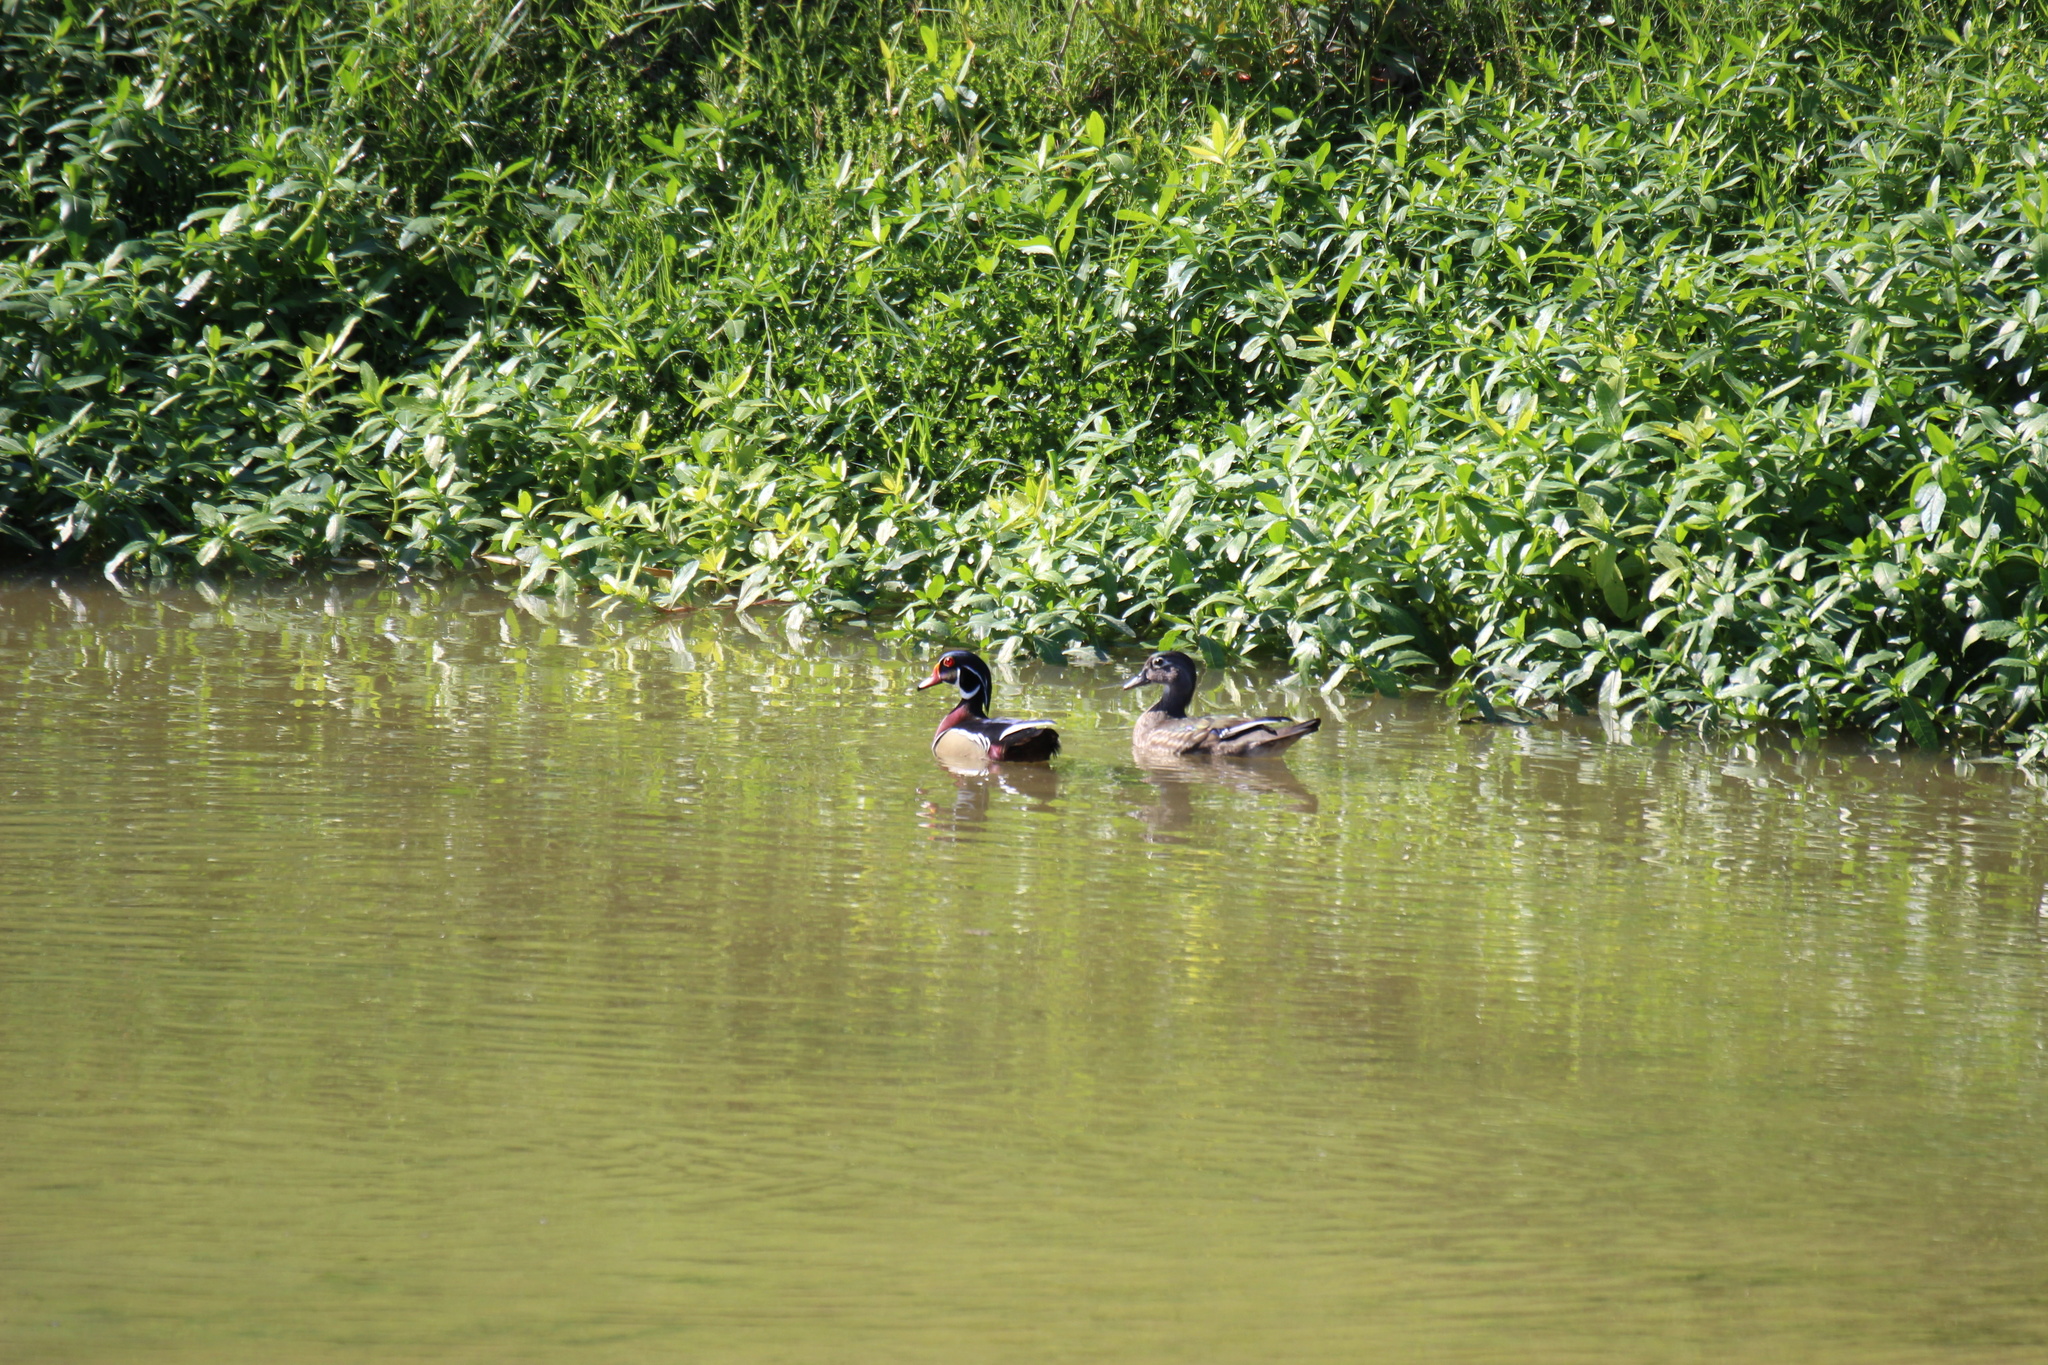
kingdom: Animalia
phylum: Chordata
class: Aves
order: Anseriformes
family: Anatidae
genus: Aix
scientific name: Aix sponsa
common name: Wood duck
